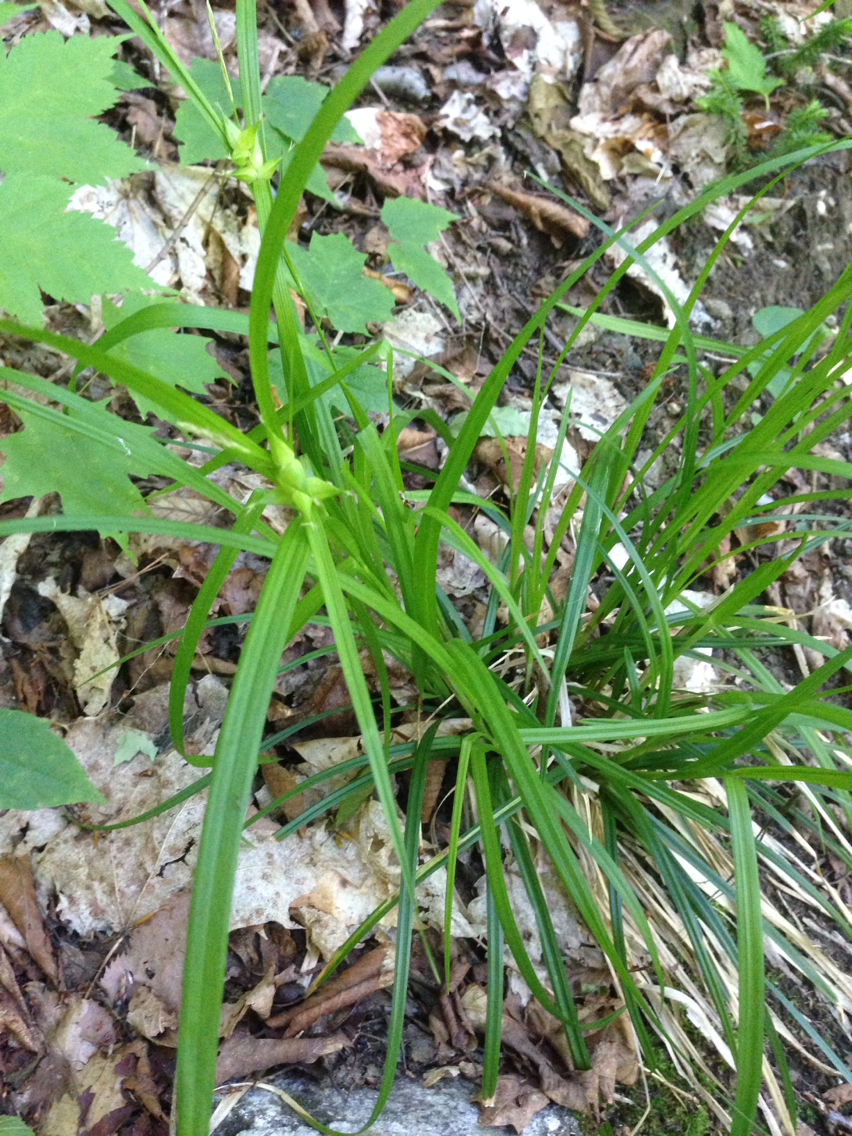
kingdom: Plantae
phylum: Tracheophyta
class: Liliopsida
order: Poales
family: Cyperaceae
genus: Carex
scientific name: Carex intumescens
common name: Greater bladder sedge
